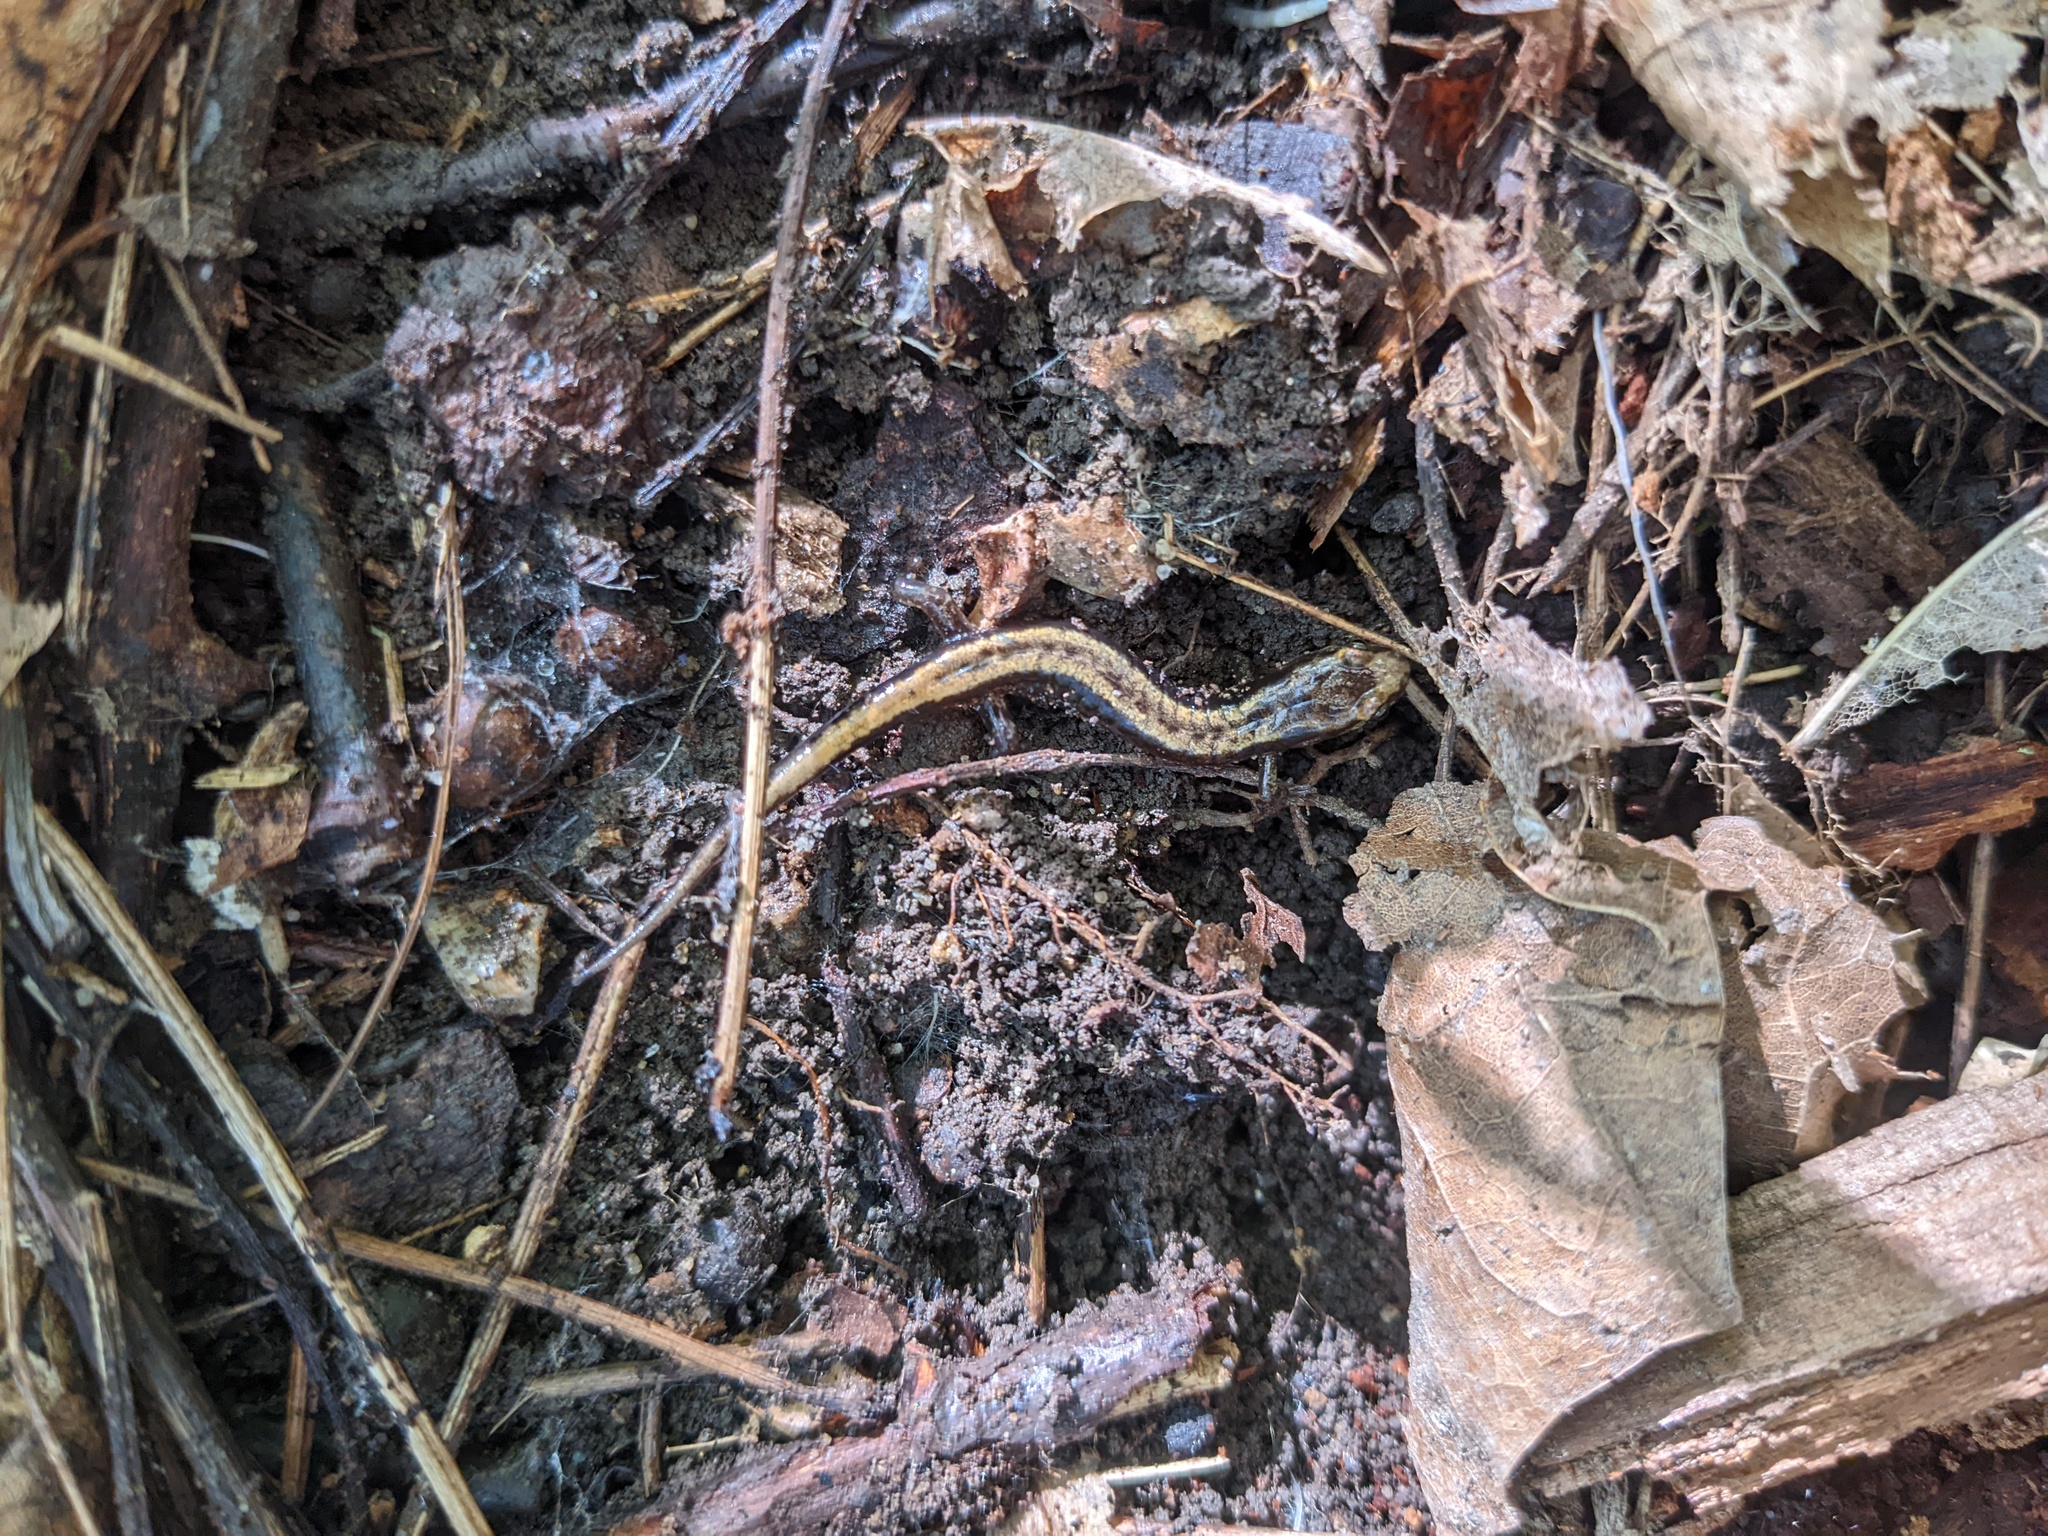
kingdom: Animalia
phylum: Chordata
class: Amphibia
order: Caudata
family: Plethodontidae
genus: Desmognathus
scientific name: Desmognathus ochrophaeus
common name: Allegheny mountain dusky salamander
